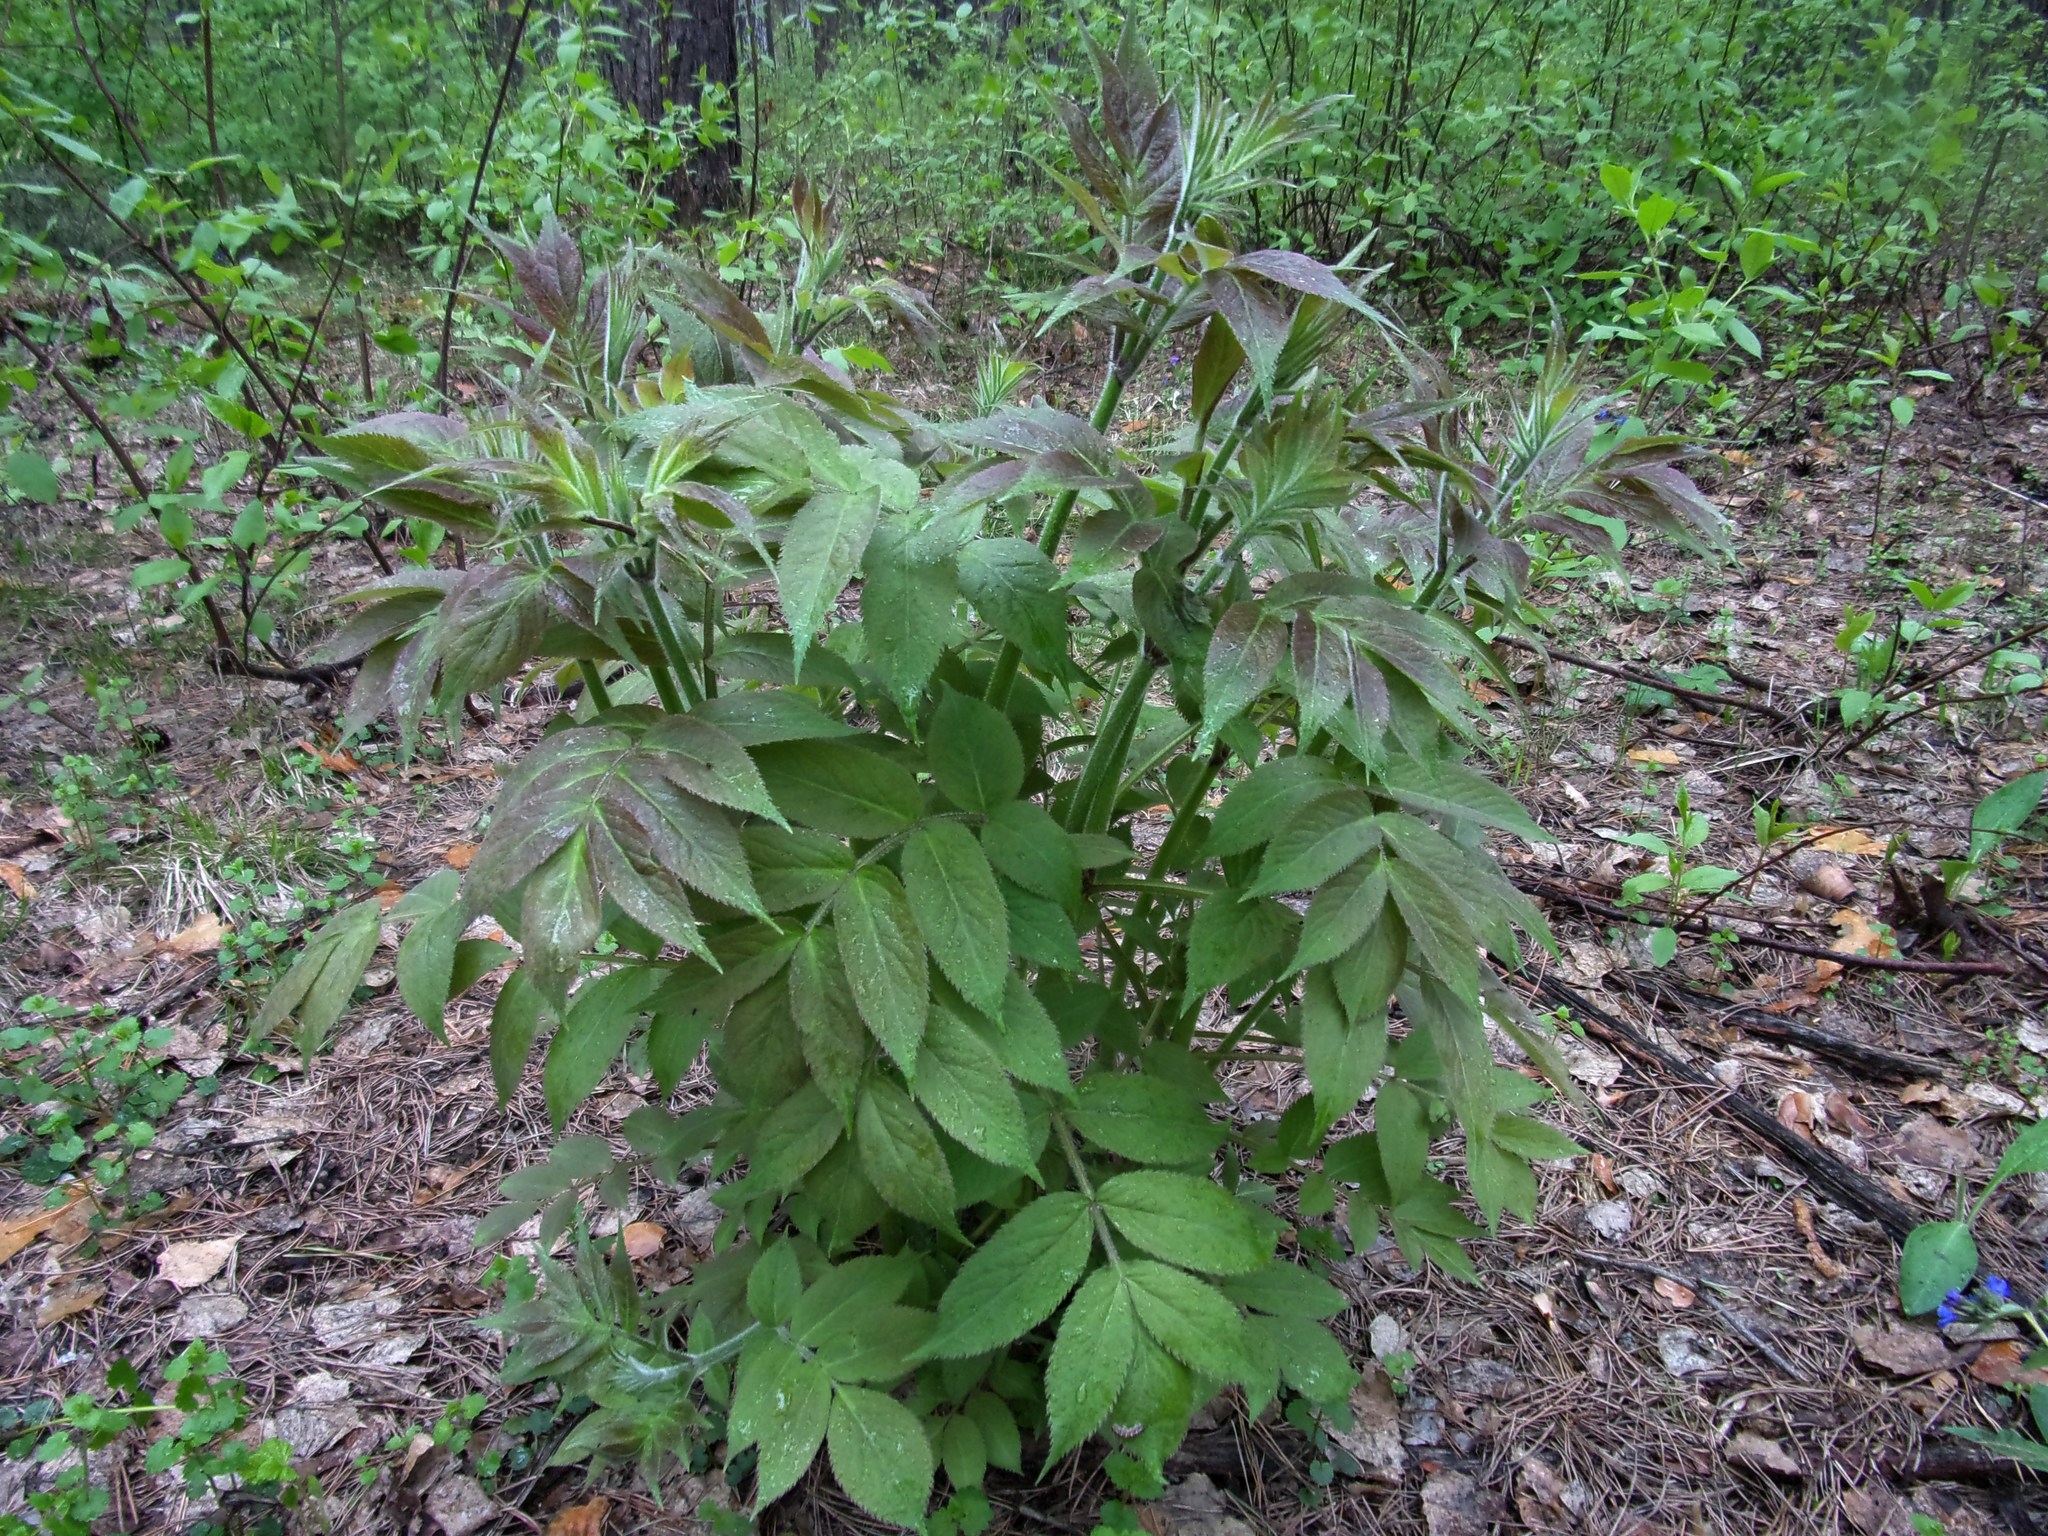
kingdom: Plantae
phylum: Tracheophyta
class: Magnoliopsida
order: Dipsacales
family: Viburnaceae
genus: Sambucus
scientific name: Sambucus sibirica
